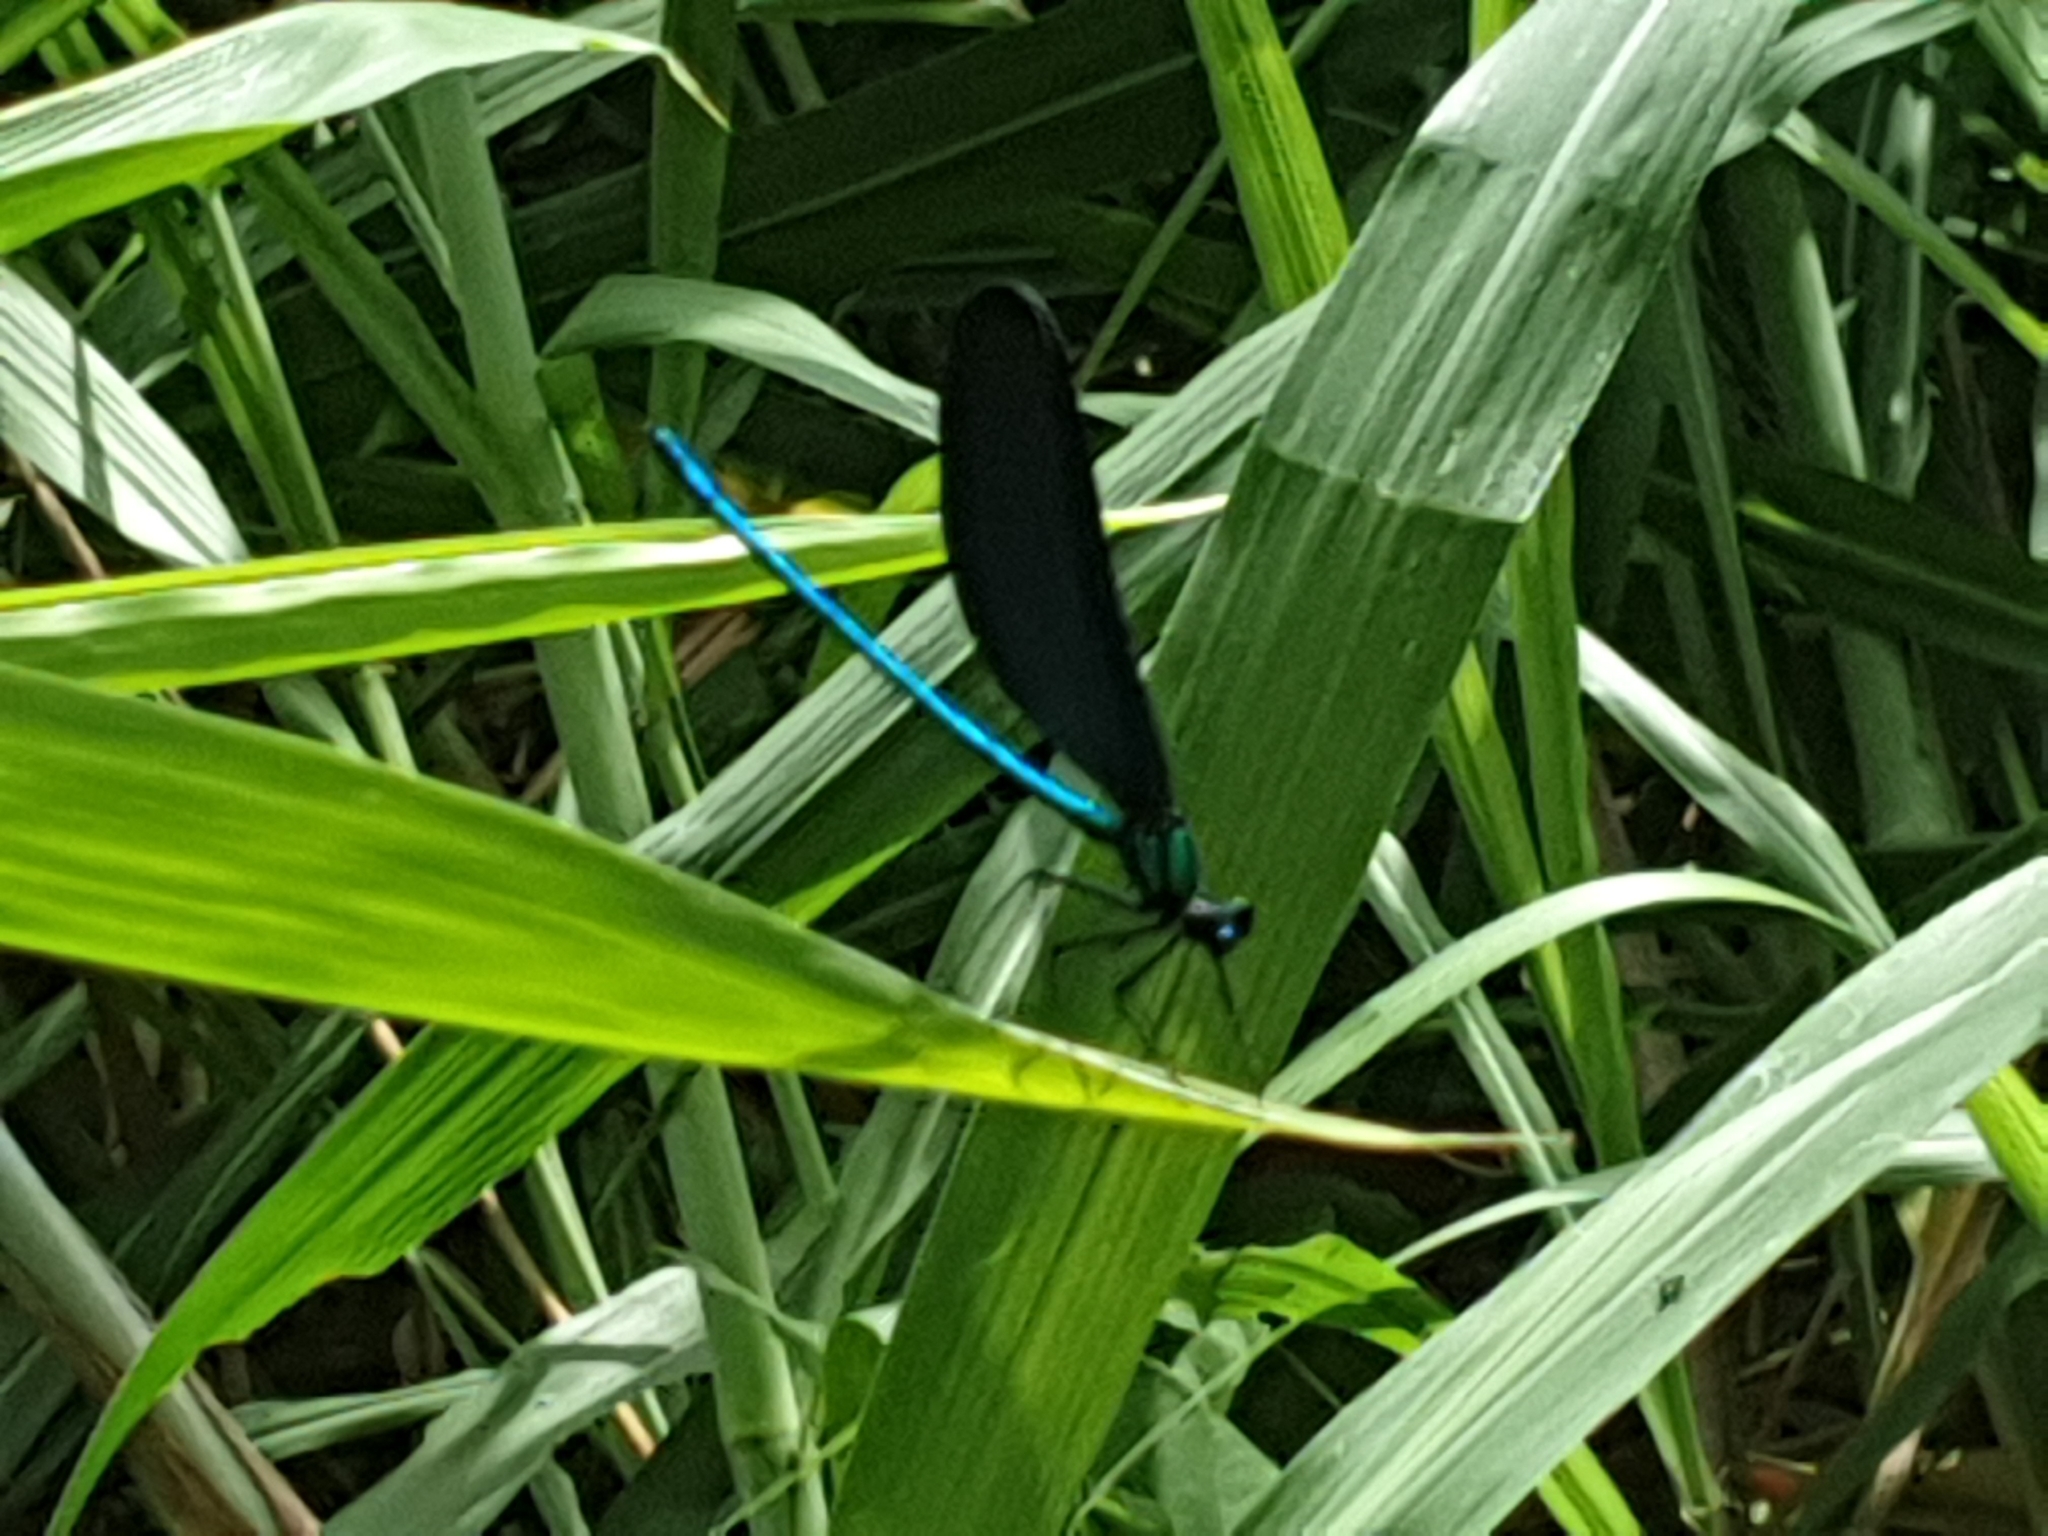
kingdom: Animalia
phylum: Arthropoda
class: Insecta
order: Odonata
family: Calopterygidae
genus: Matrona
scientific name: Matrona cyanoptera
